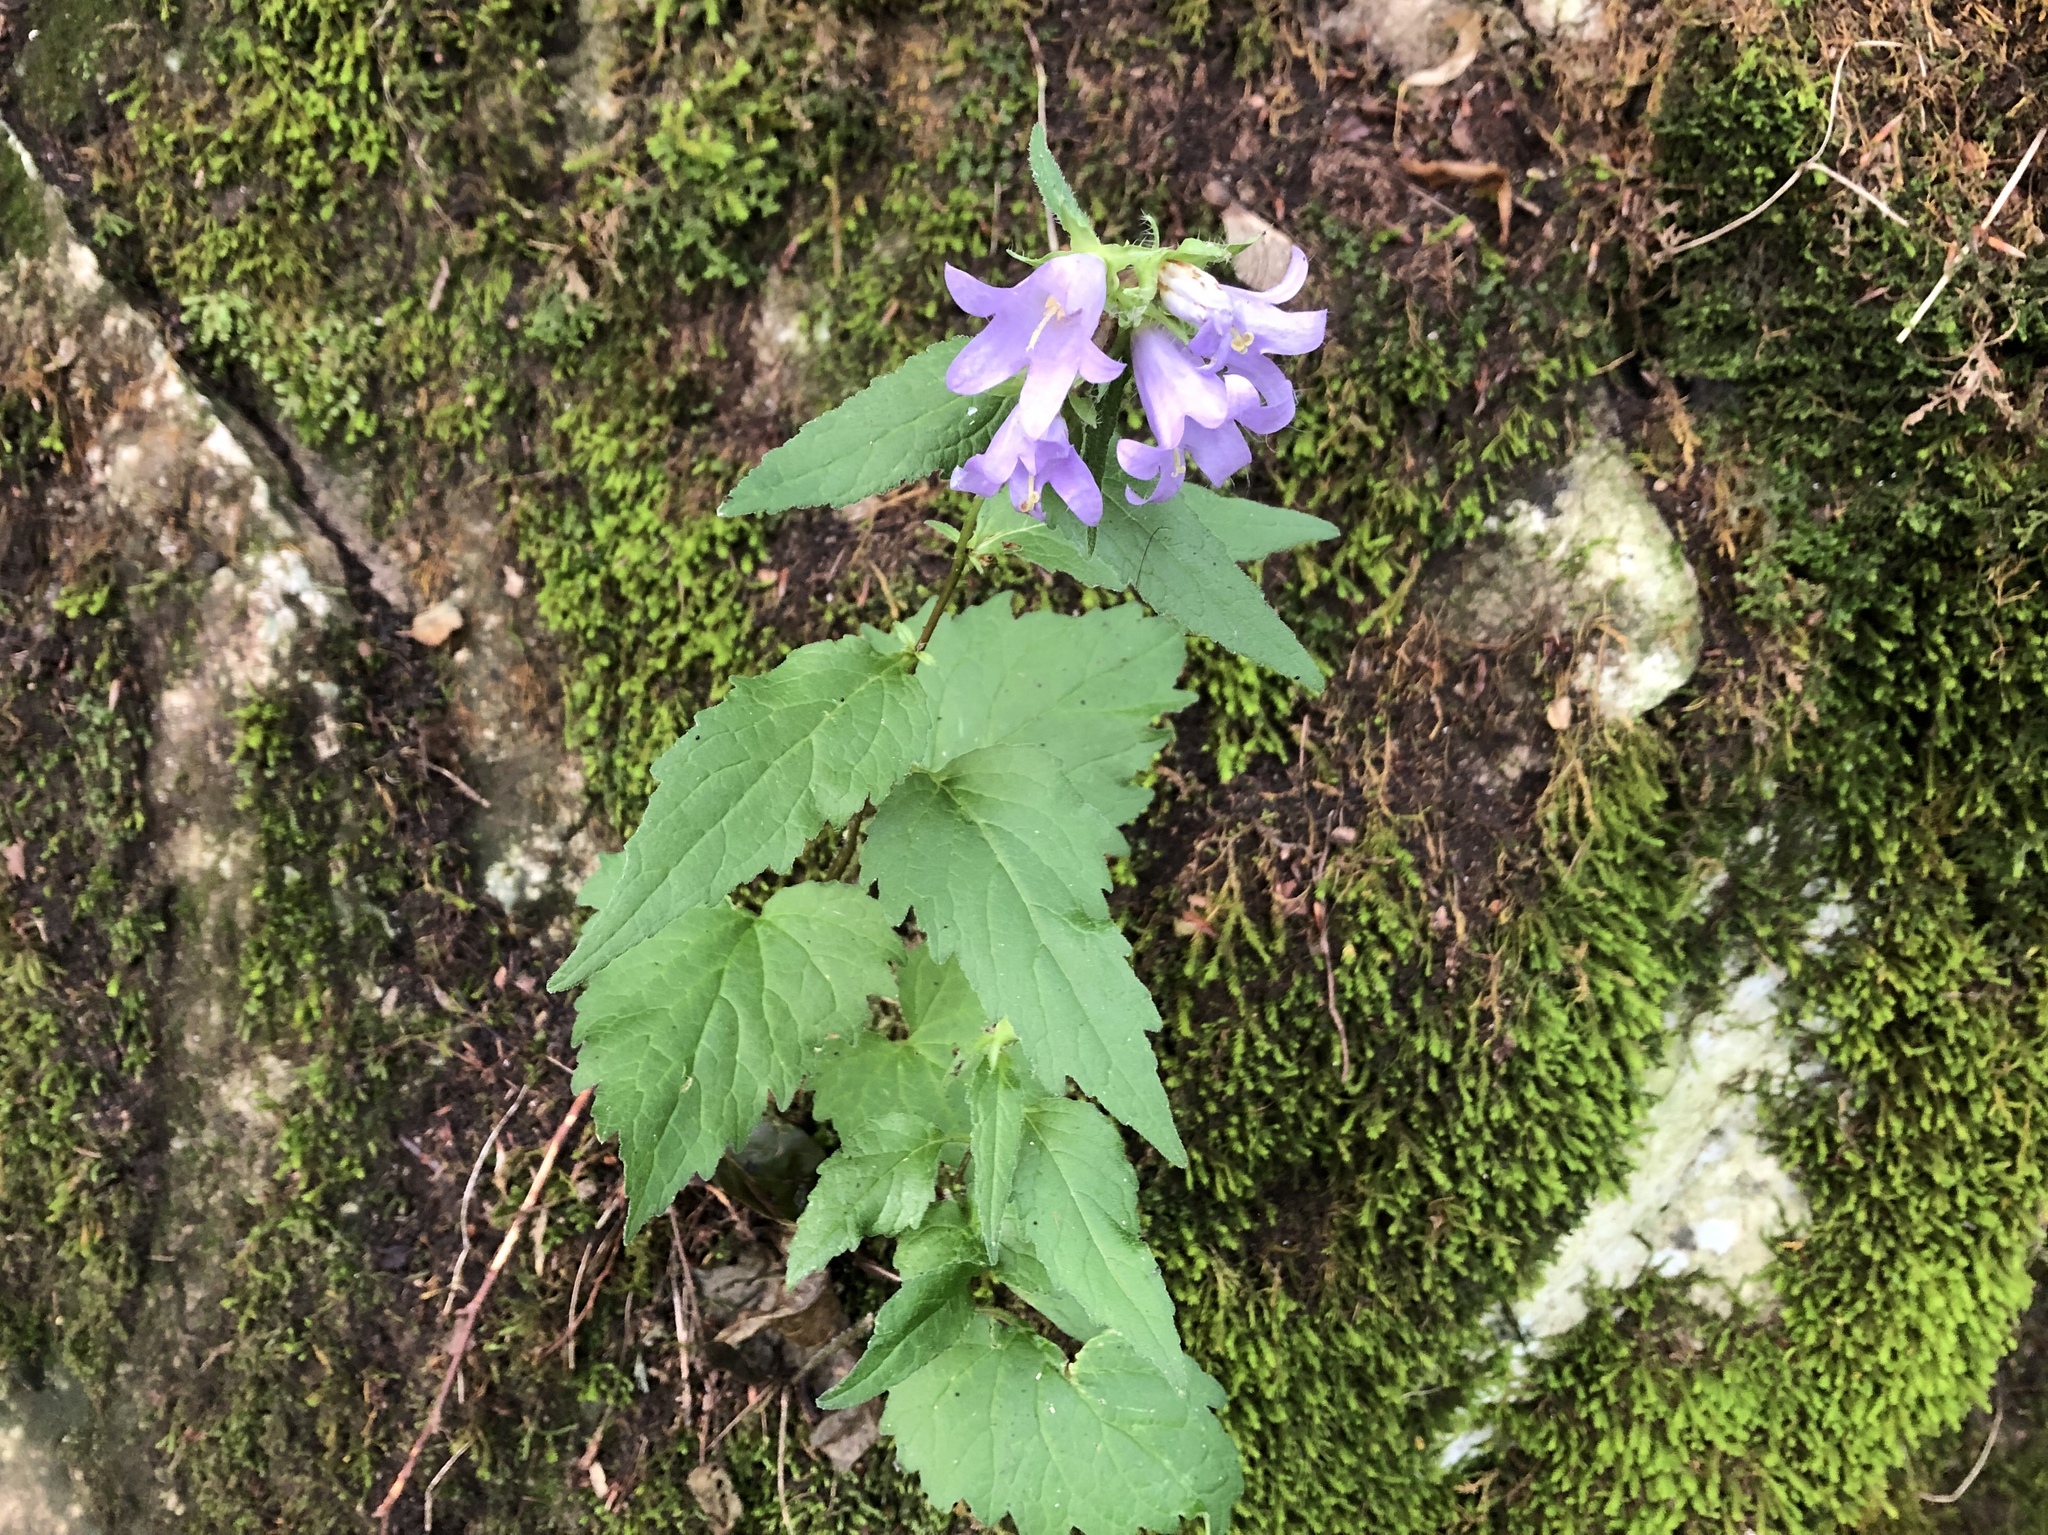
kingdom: Plantae
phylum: Tracheophyta
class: Magnoliopsida
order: Asterales
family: Campanulaceae
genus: Campanula
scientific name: Campanula trachelium
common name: Nettle-leaved bellflower
